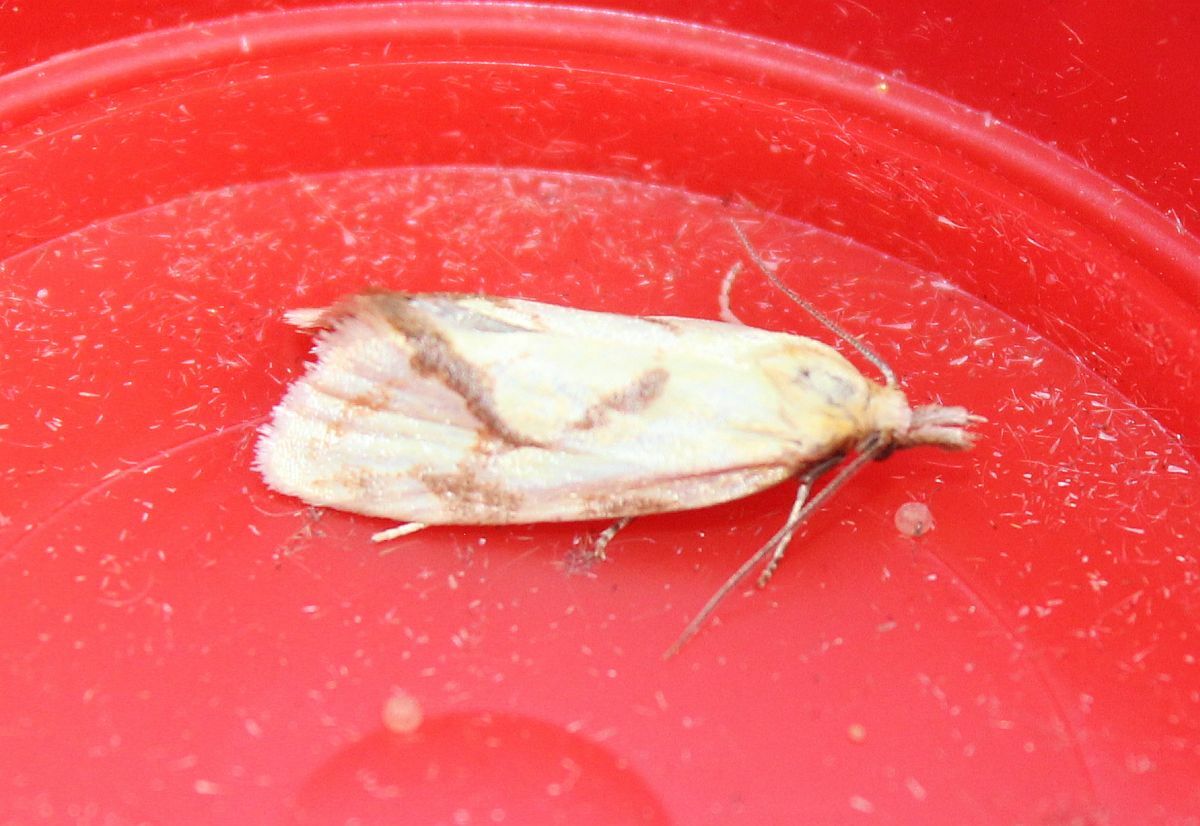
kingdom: Animalia
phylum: Arthropoda
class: Insecta
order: Lepidoptera
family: Tortricidae
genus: Agapeta
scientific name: Agapeta hamana
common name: Common yellow conch
